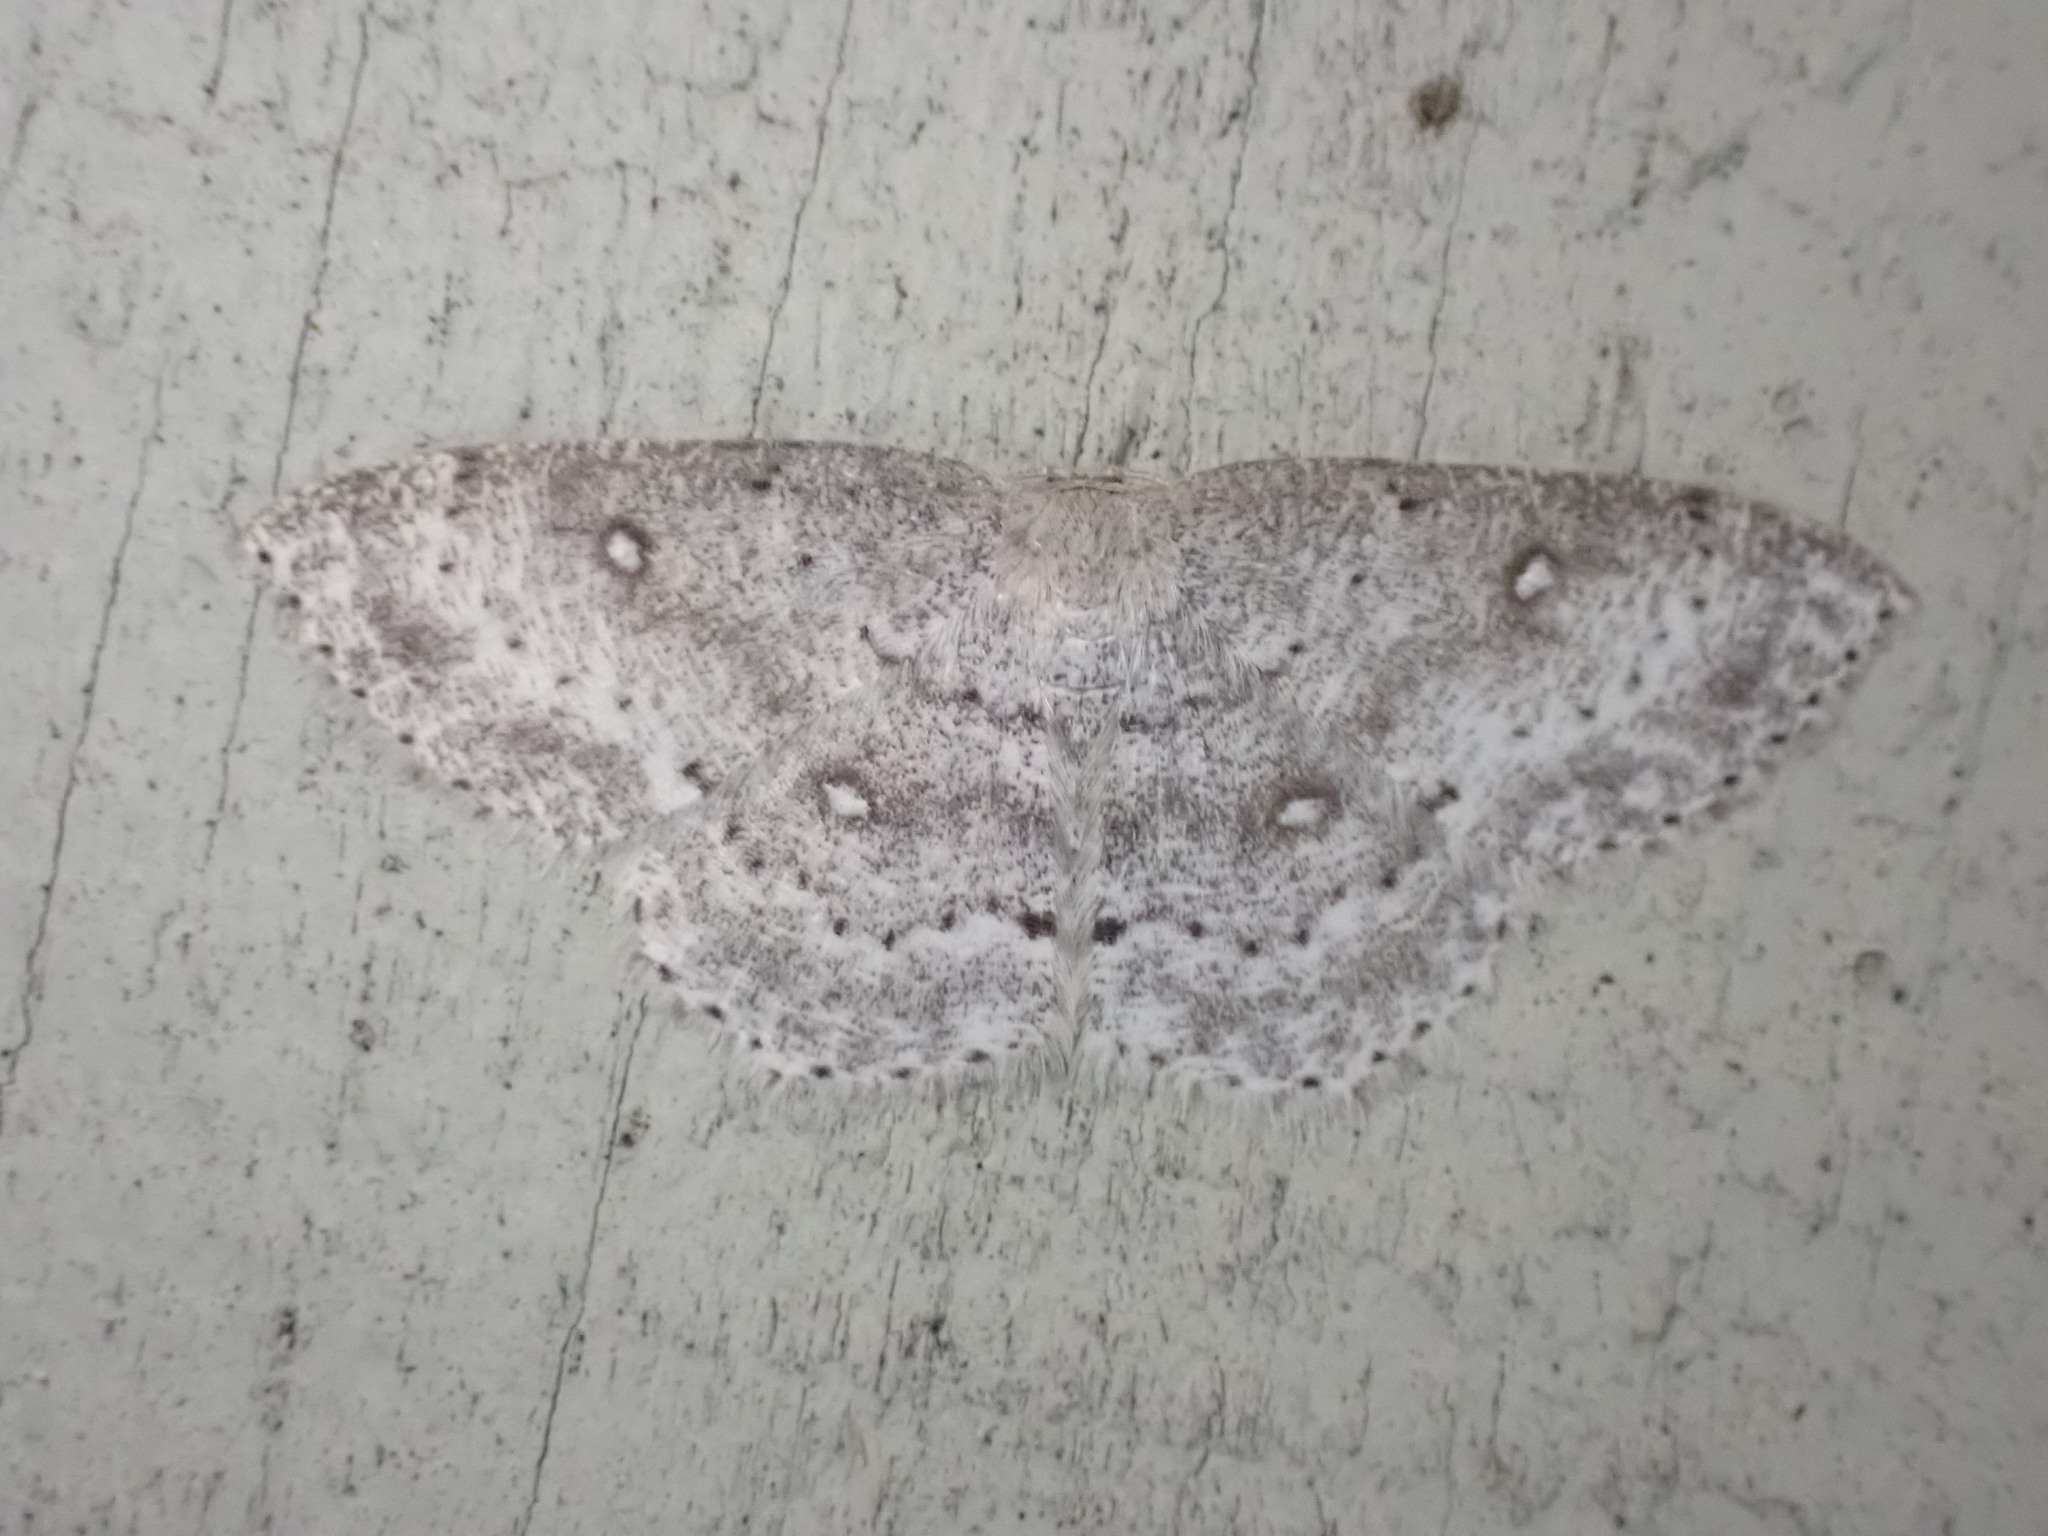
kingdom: Animalia
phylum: Arthropoda
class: Insecta
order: Lepidoptera
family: Geometridae
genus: Cyclophora
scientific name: Cyclophora pendulinaria
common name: Sweet fern geometer
